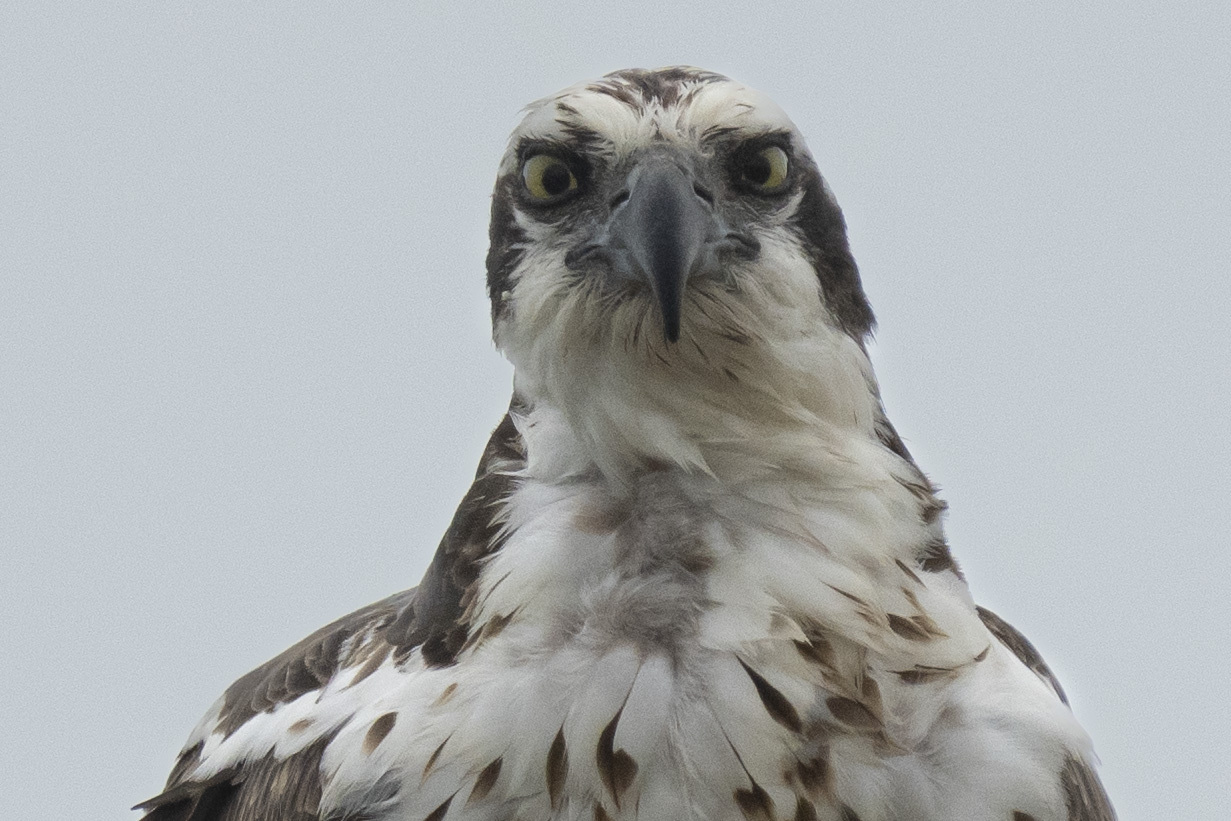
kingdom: Animalia
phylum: Chordata
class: Aves
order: Accipitriformes
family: Pandionidae
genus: Pandion
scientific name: Pandion haliaetus
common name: Osprey
